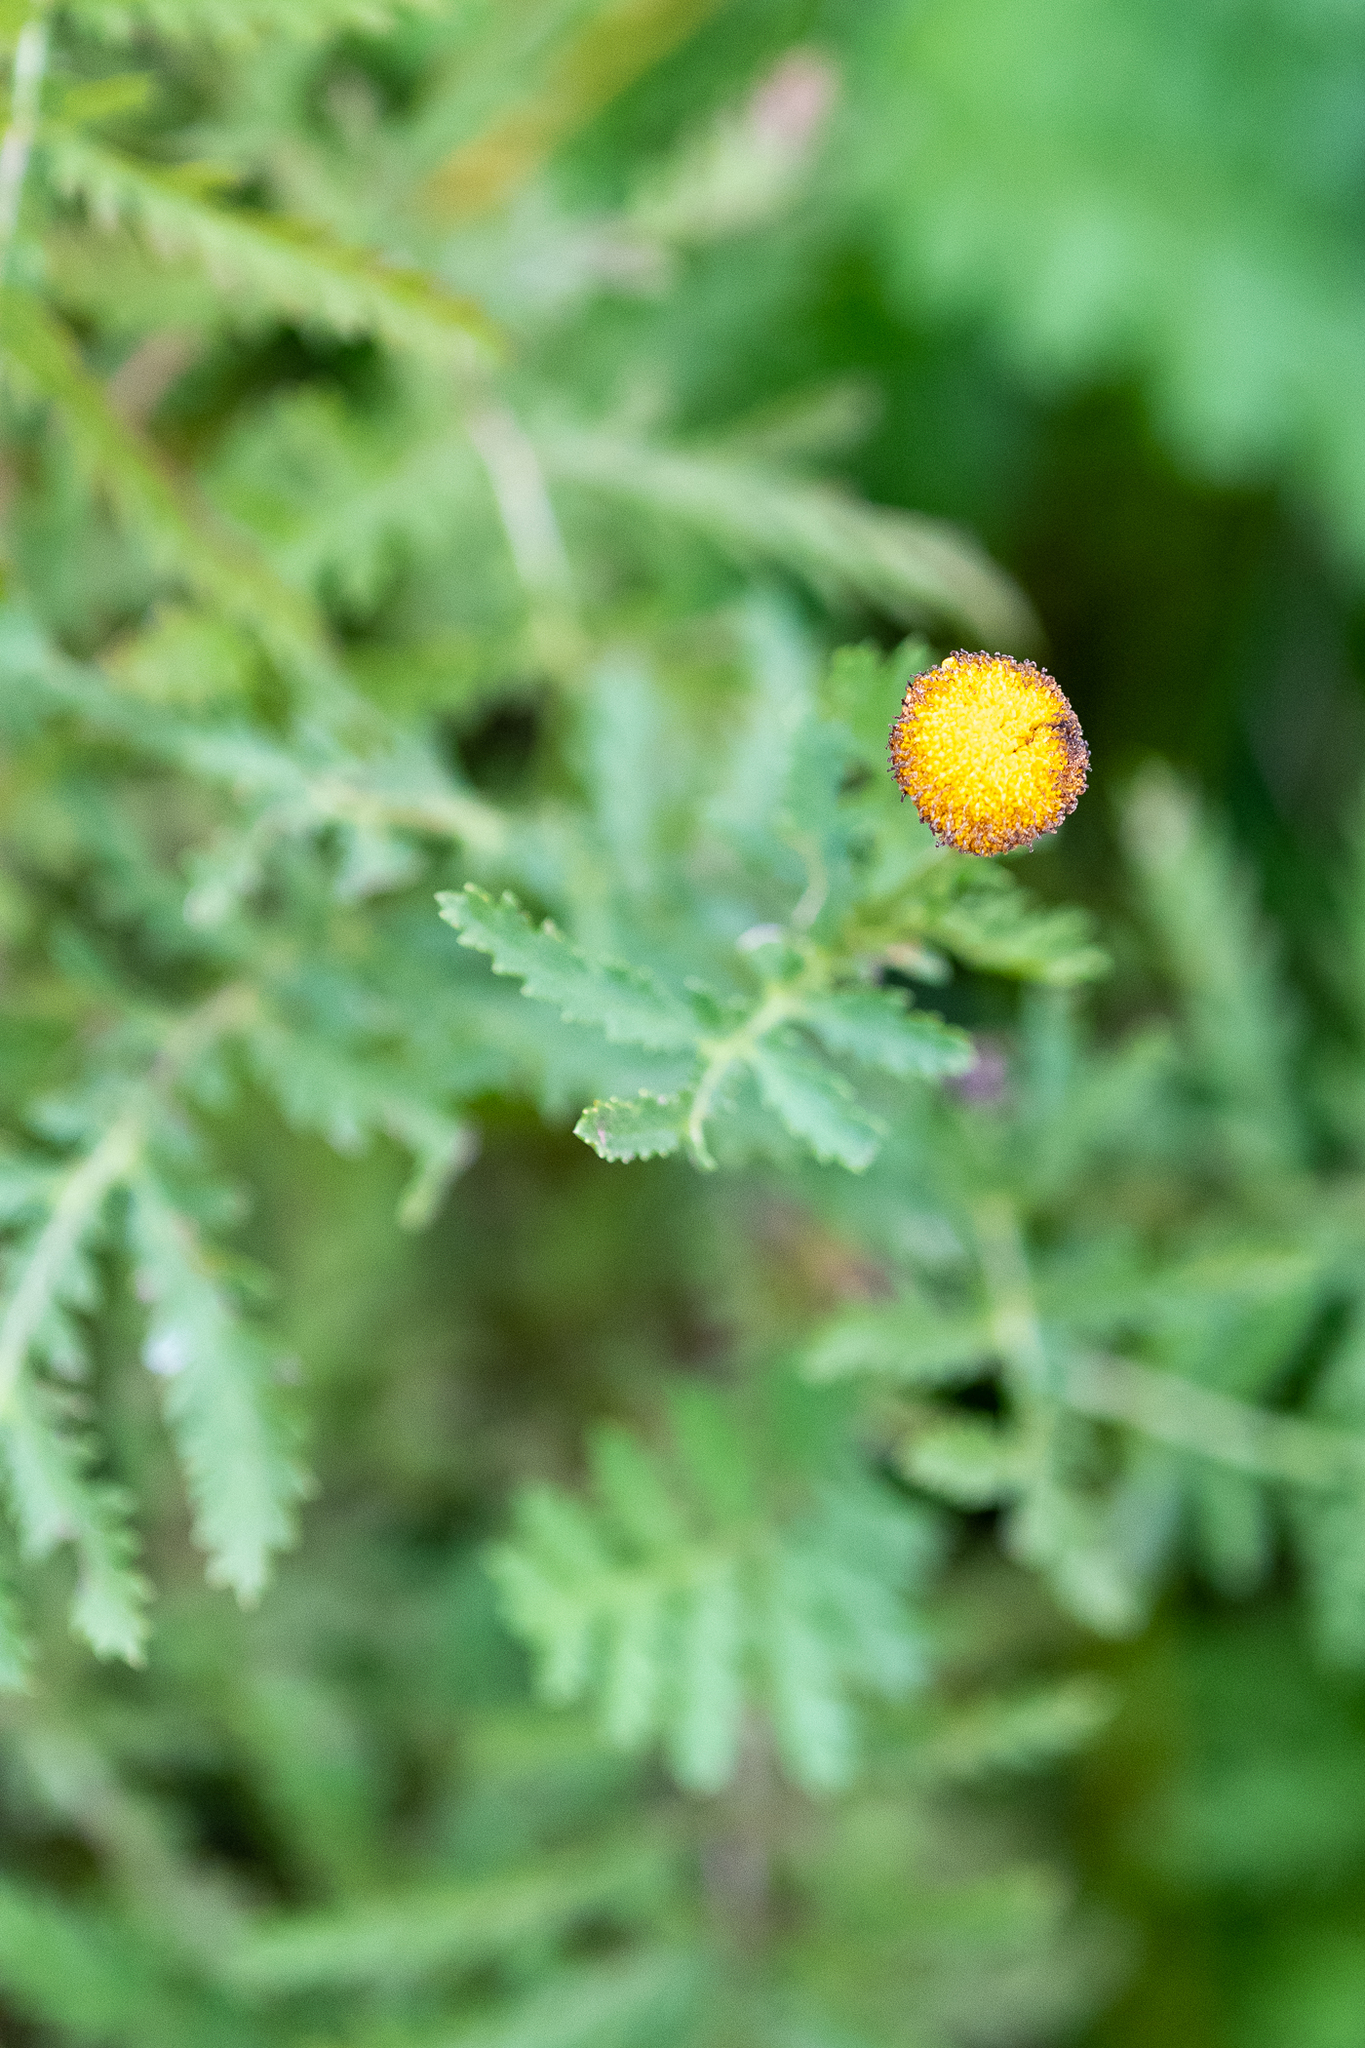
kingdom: Plantae
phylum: Tracheophyta
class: Magnoliopsida
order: Asterales
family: Asteraceae
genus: Tanacetum
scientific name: Tanacetum vulgare
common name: Common tansy
